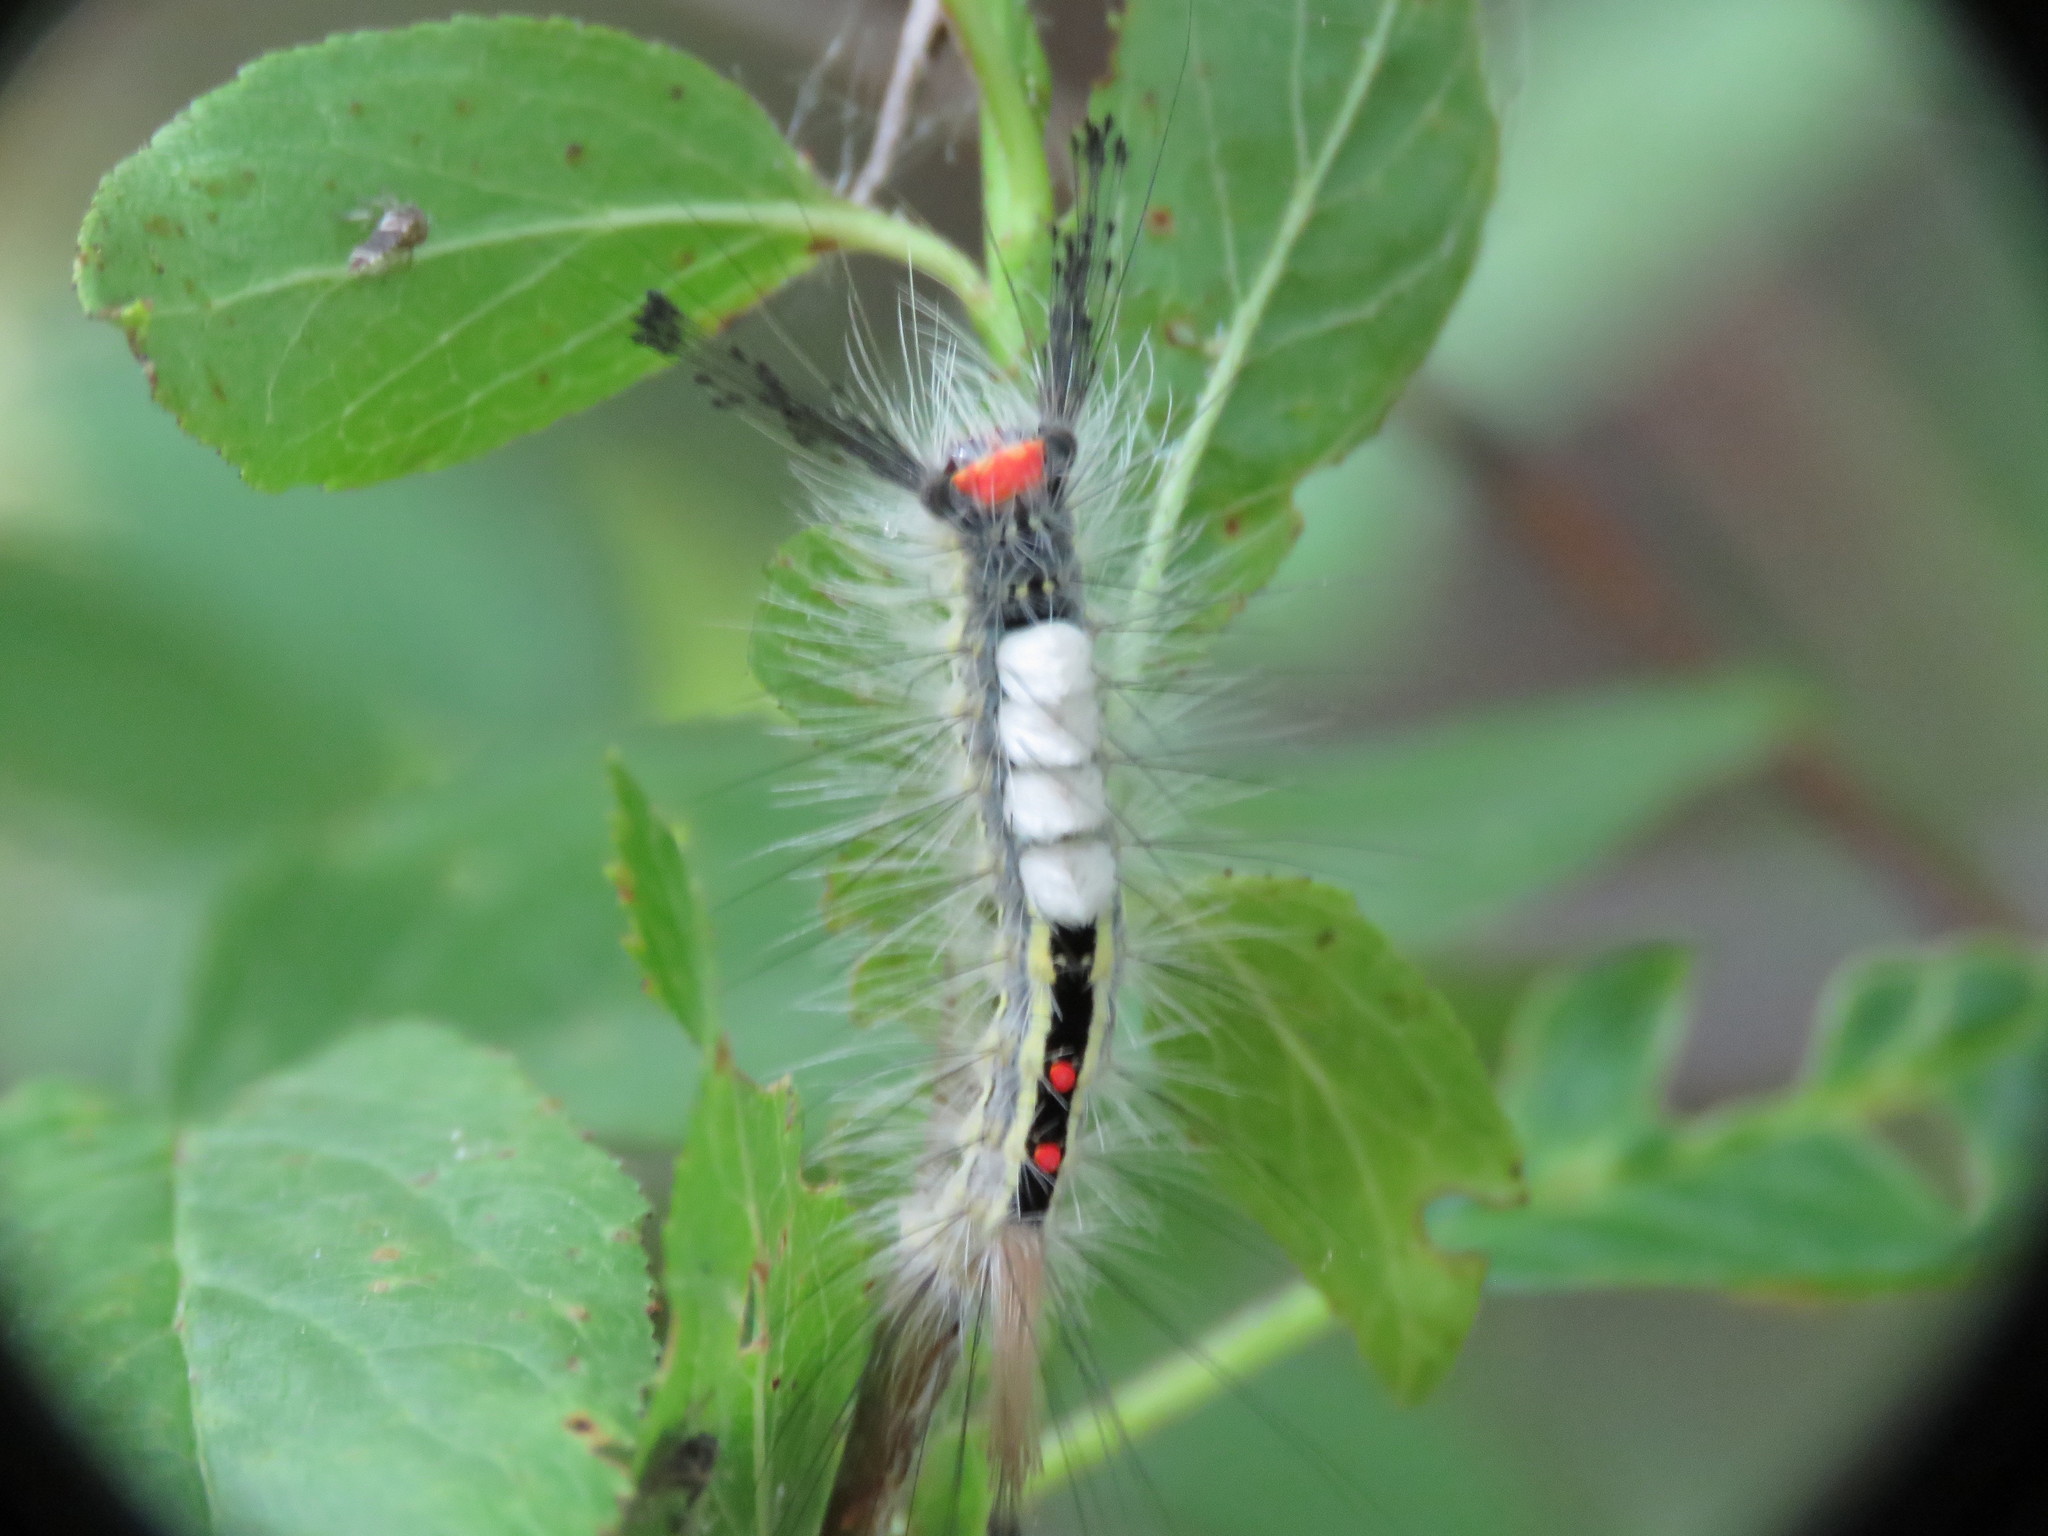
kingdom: Animalia
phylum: Arthropoda
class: Insecta
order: Lepidoptera
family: Erebidae
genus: Orgyia
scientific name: Orgyia leucostigma
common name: White-marked tussock moth
